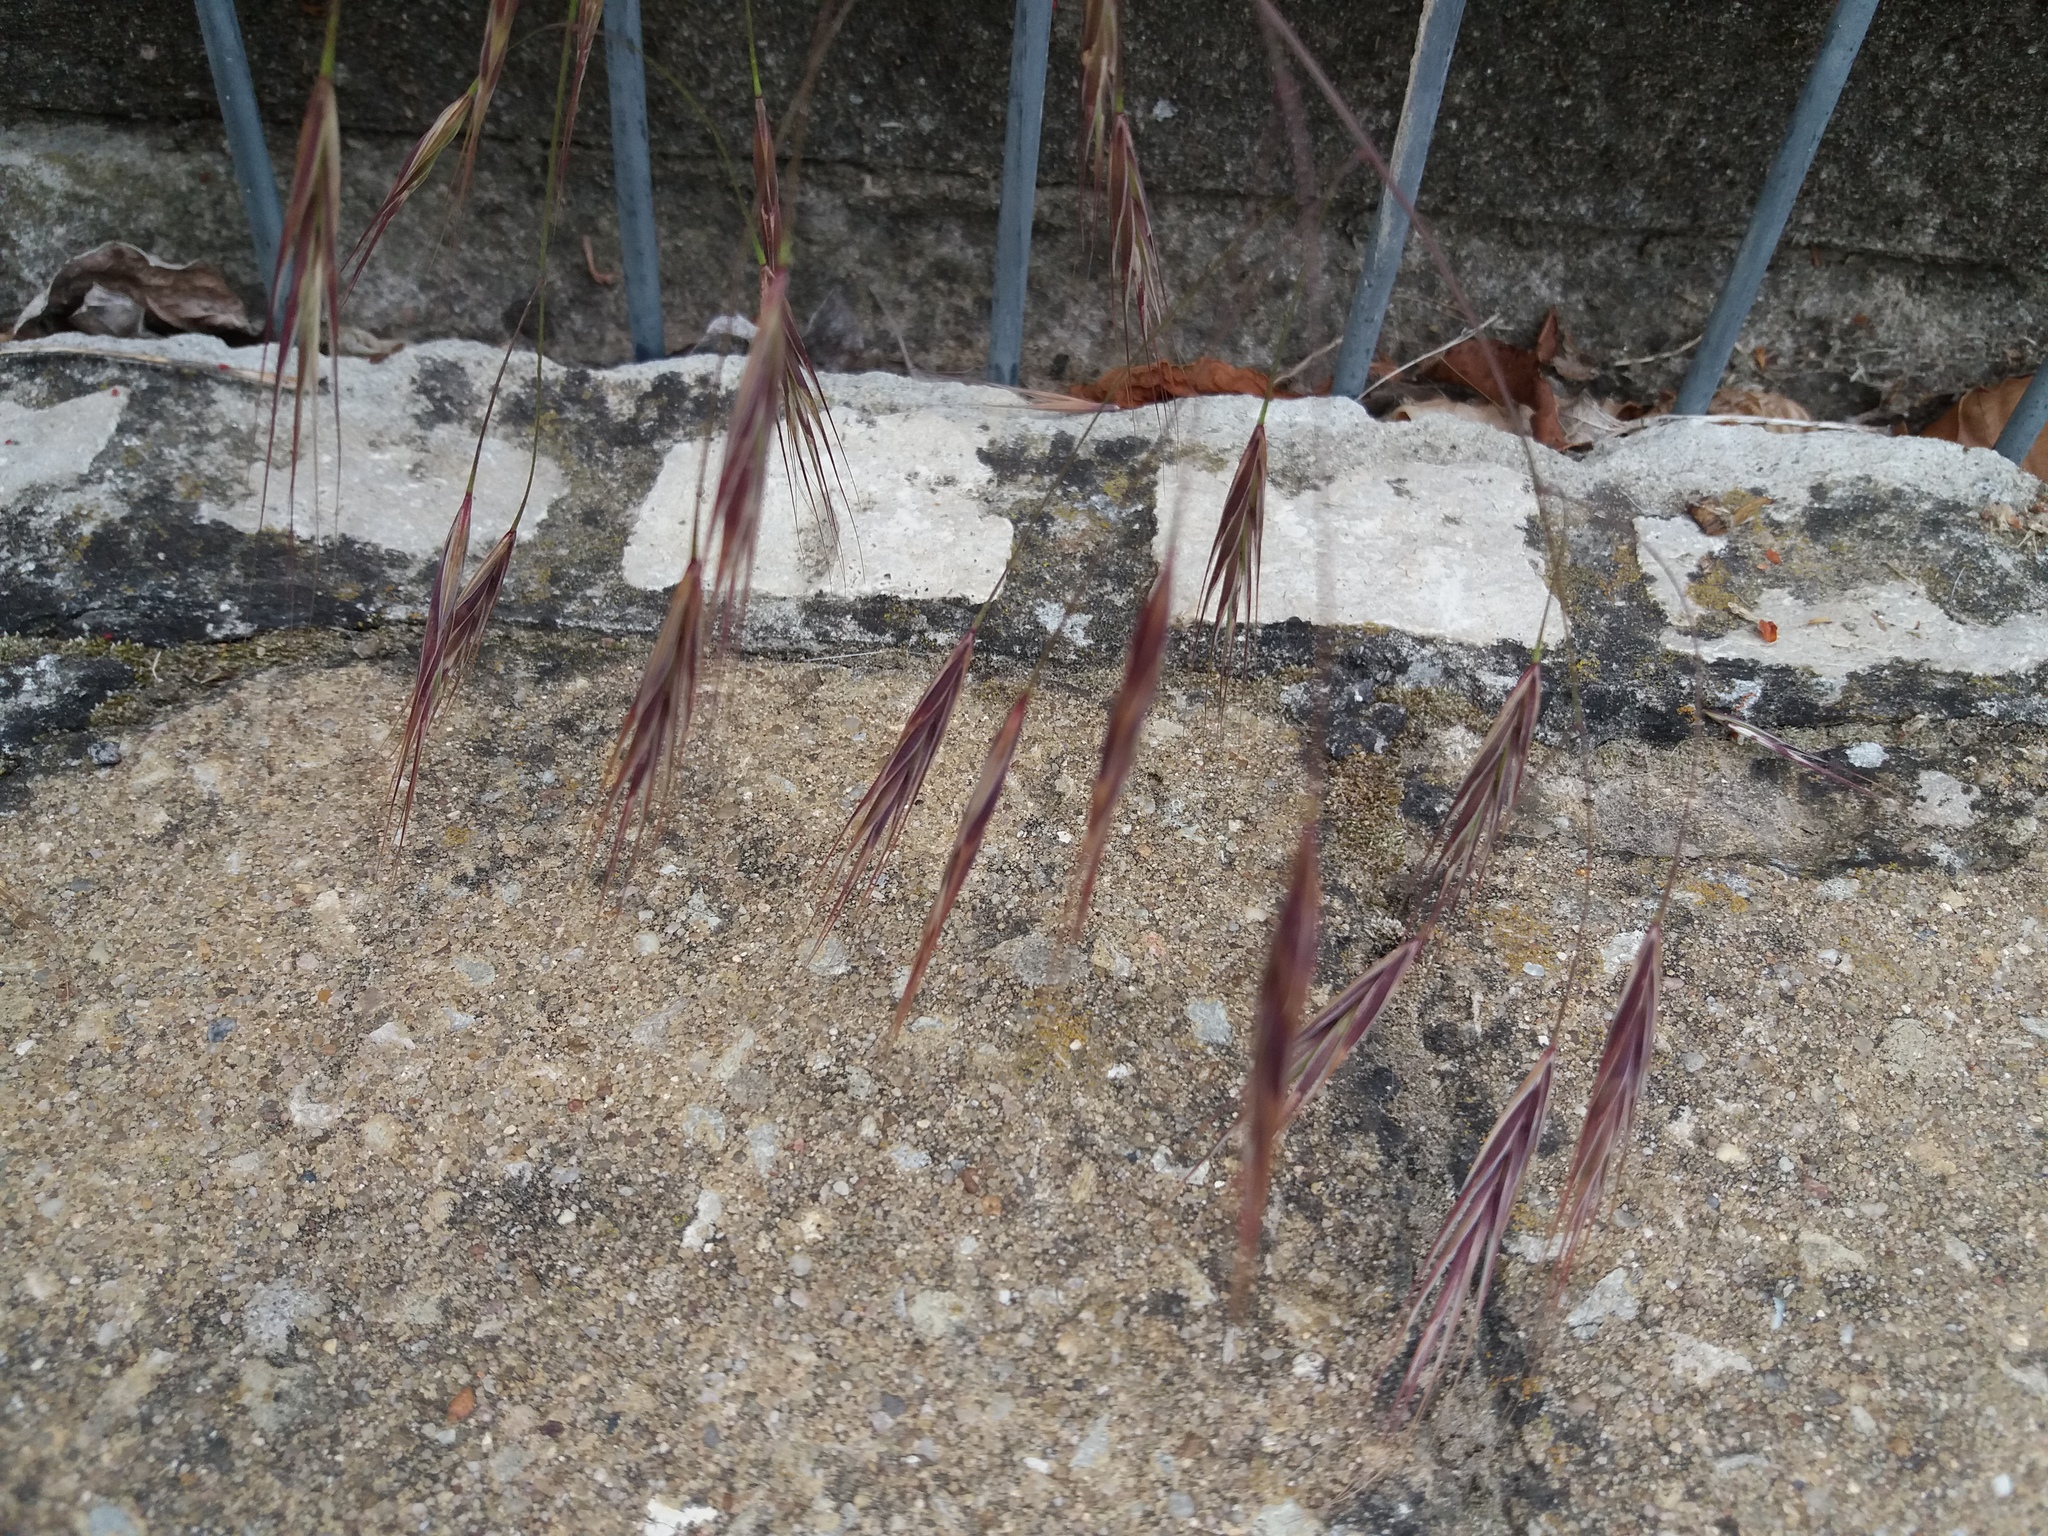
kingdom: Plantae
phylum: Tracheophyta
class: Liliopsida
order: Poales
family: Poaceae
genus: Bromus
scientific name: Bromus sterilis
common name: Poverty brome
